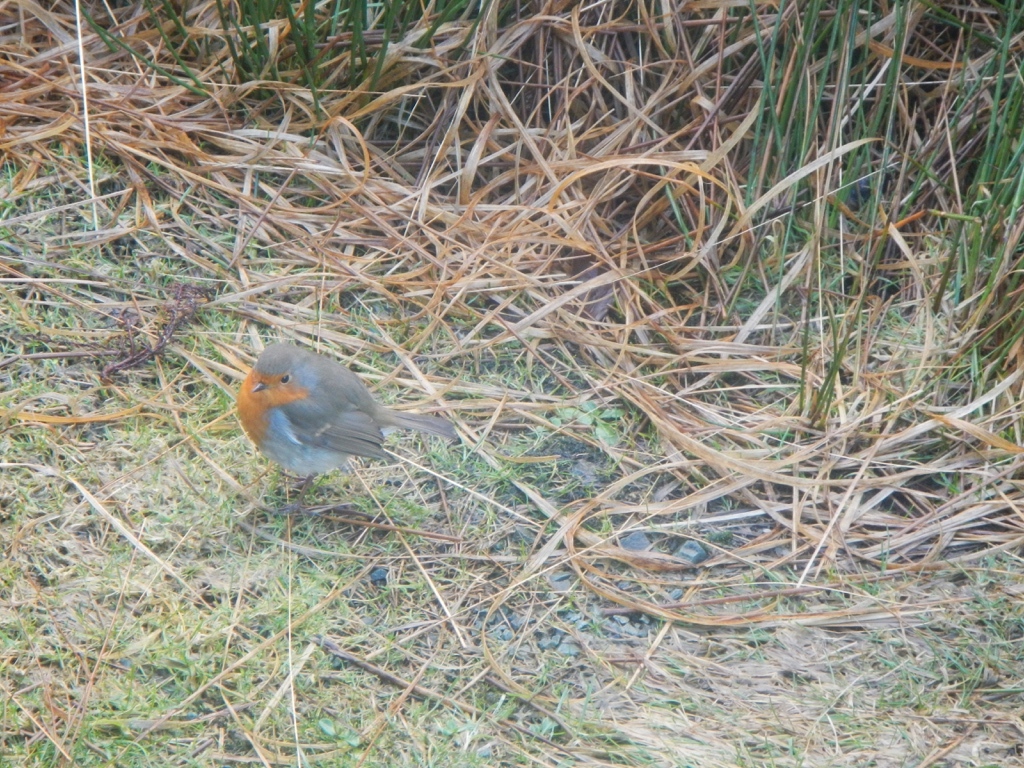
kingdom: Animalia
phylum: Chordata
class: Aves
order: Passeriformes
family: Muscicapidae
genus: Erithacus
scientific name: Erithacus rubecula
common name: European robin
